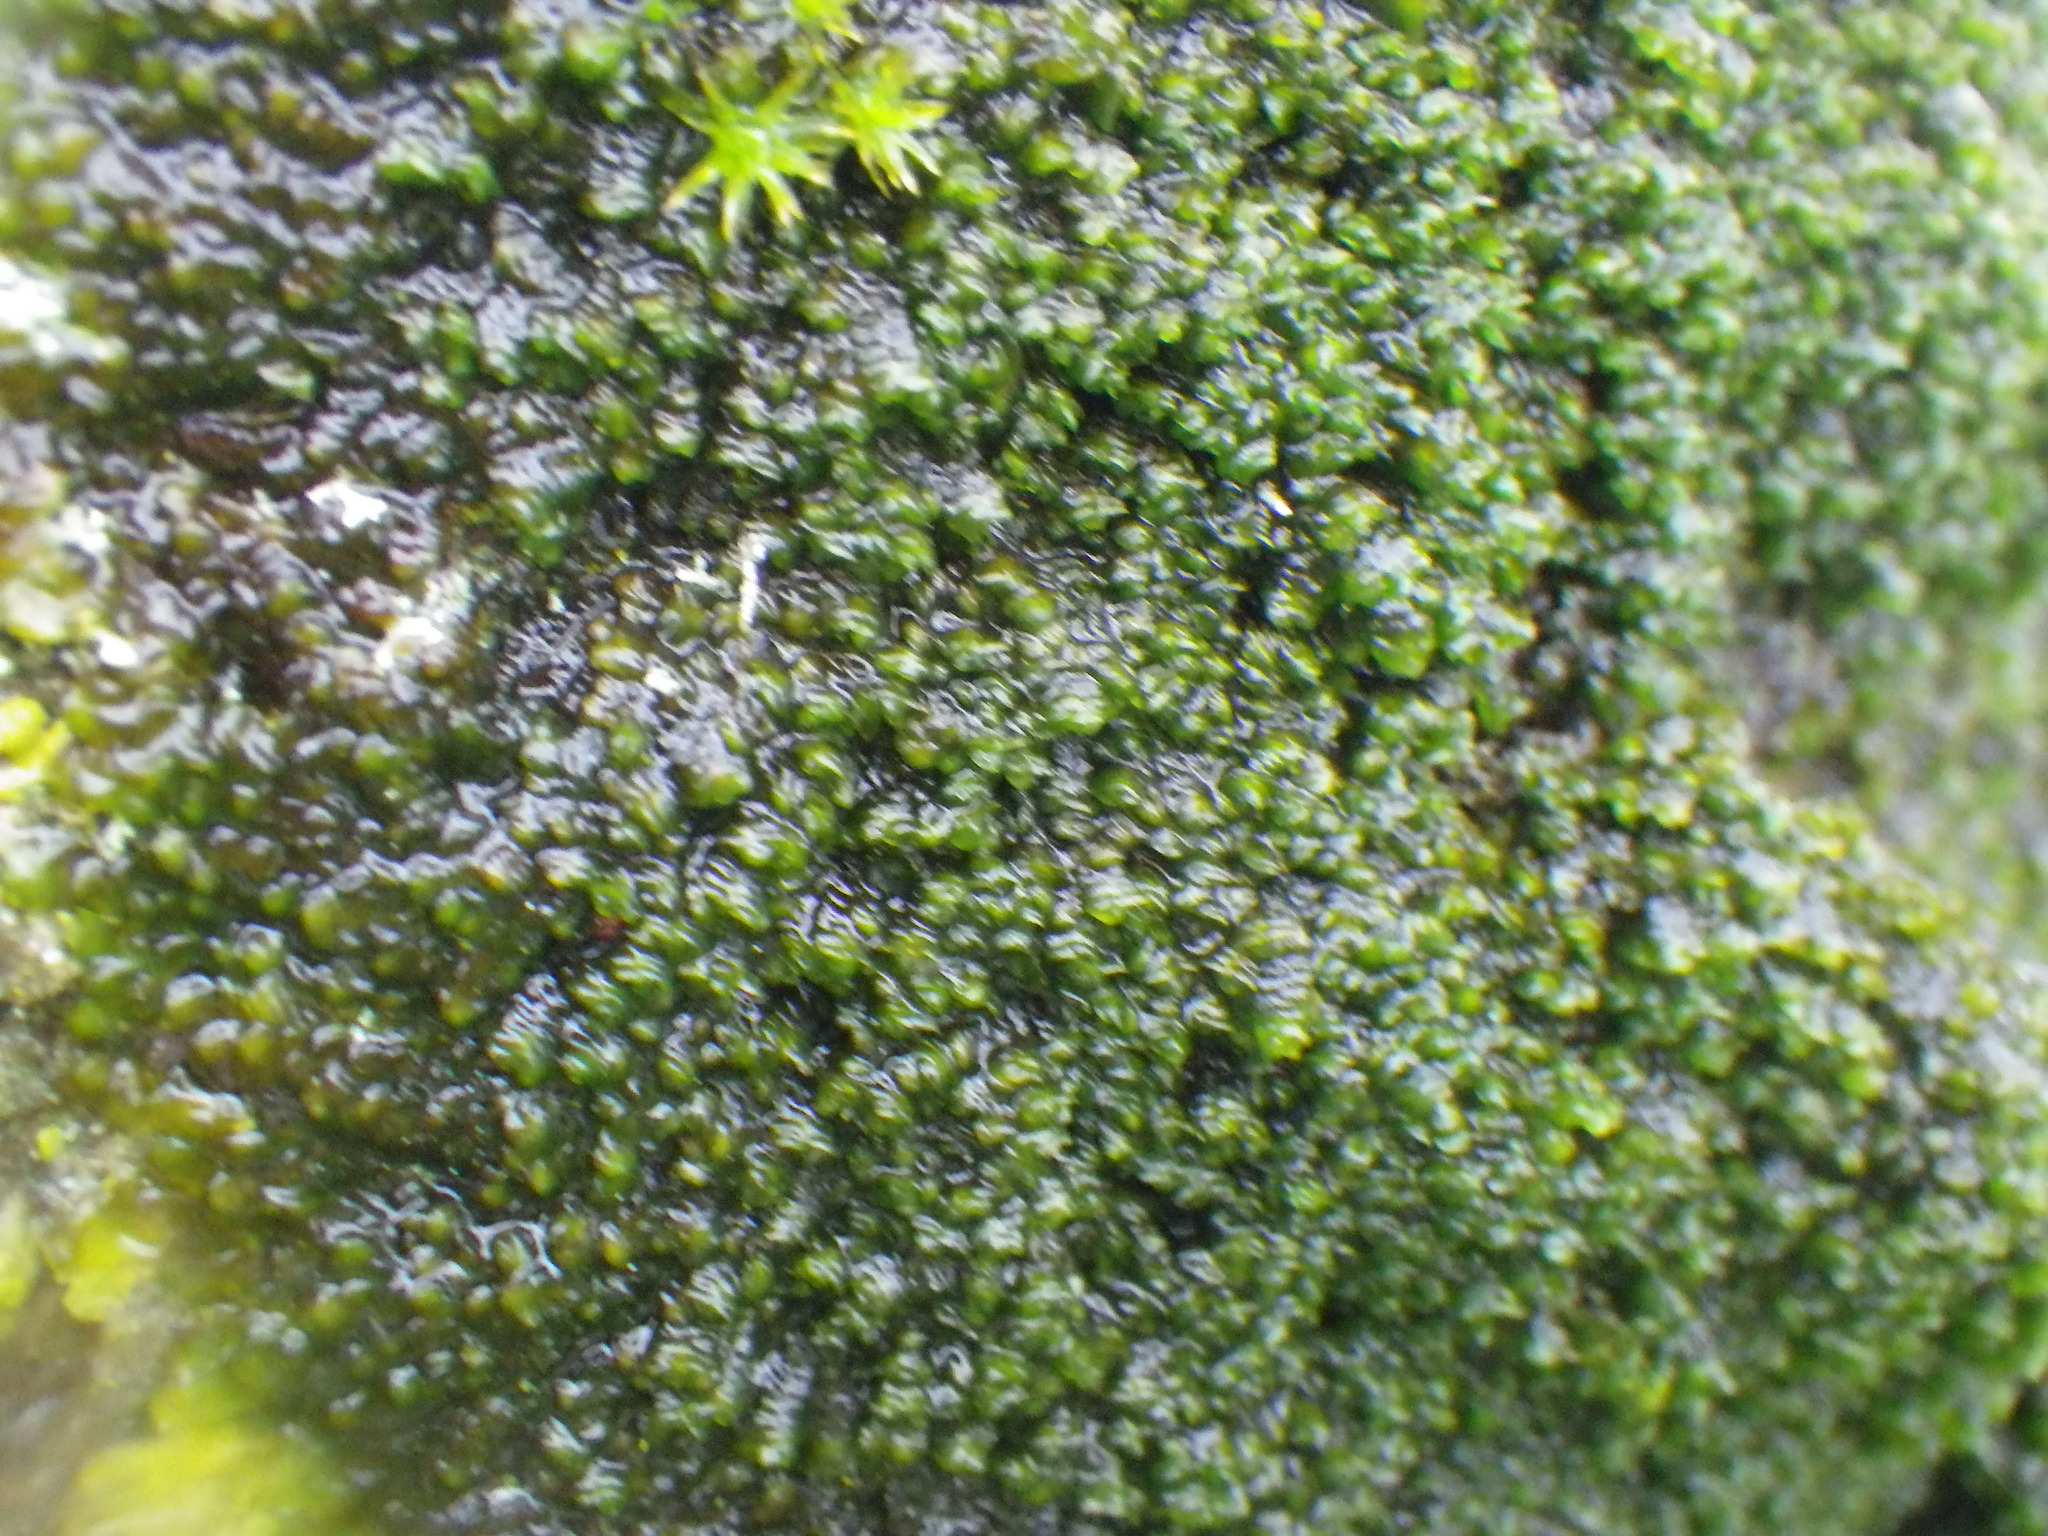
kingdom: Plantae
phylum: Marchantiophyta
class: Jungermanniopsida
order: Porellales
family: Frullaniaceae
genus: Frullania
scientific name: Frullania dilatata
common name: Dilated scalewort
